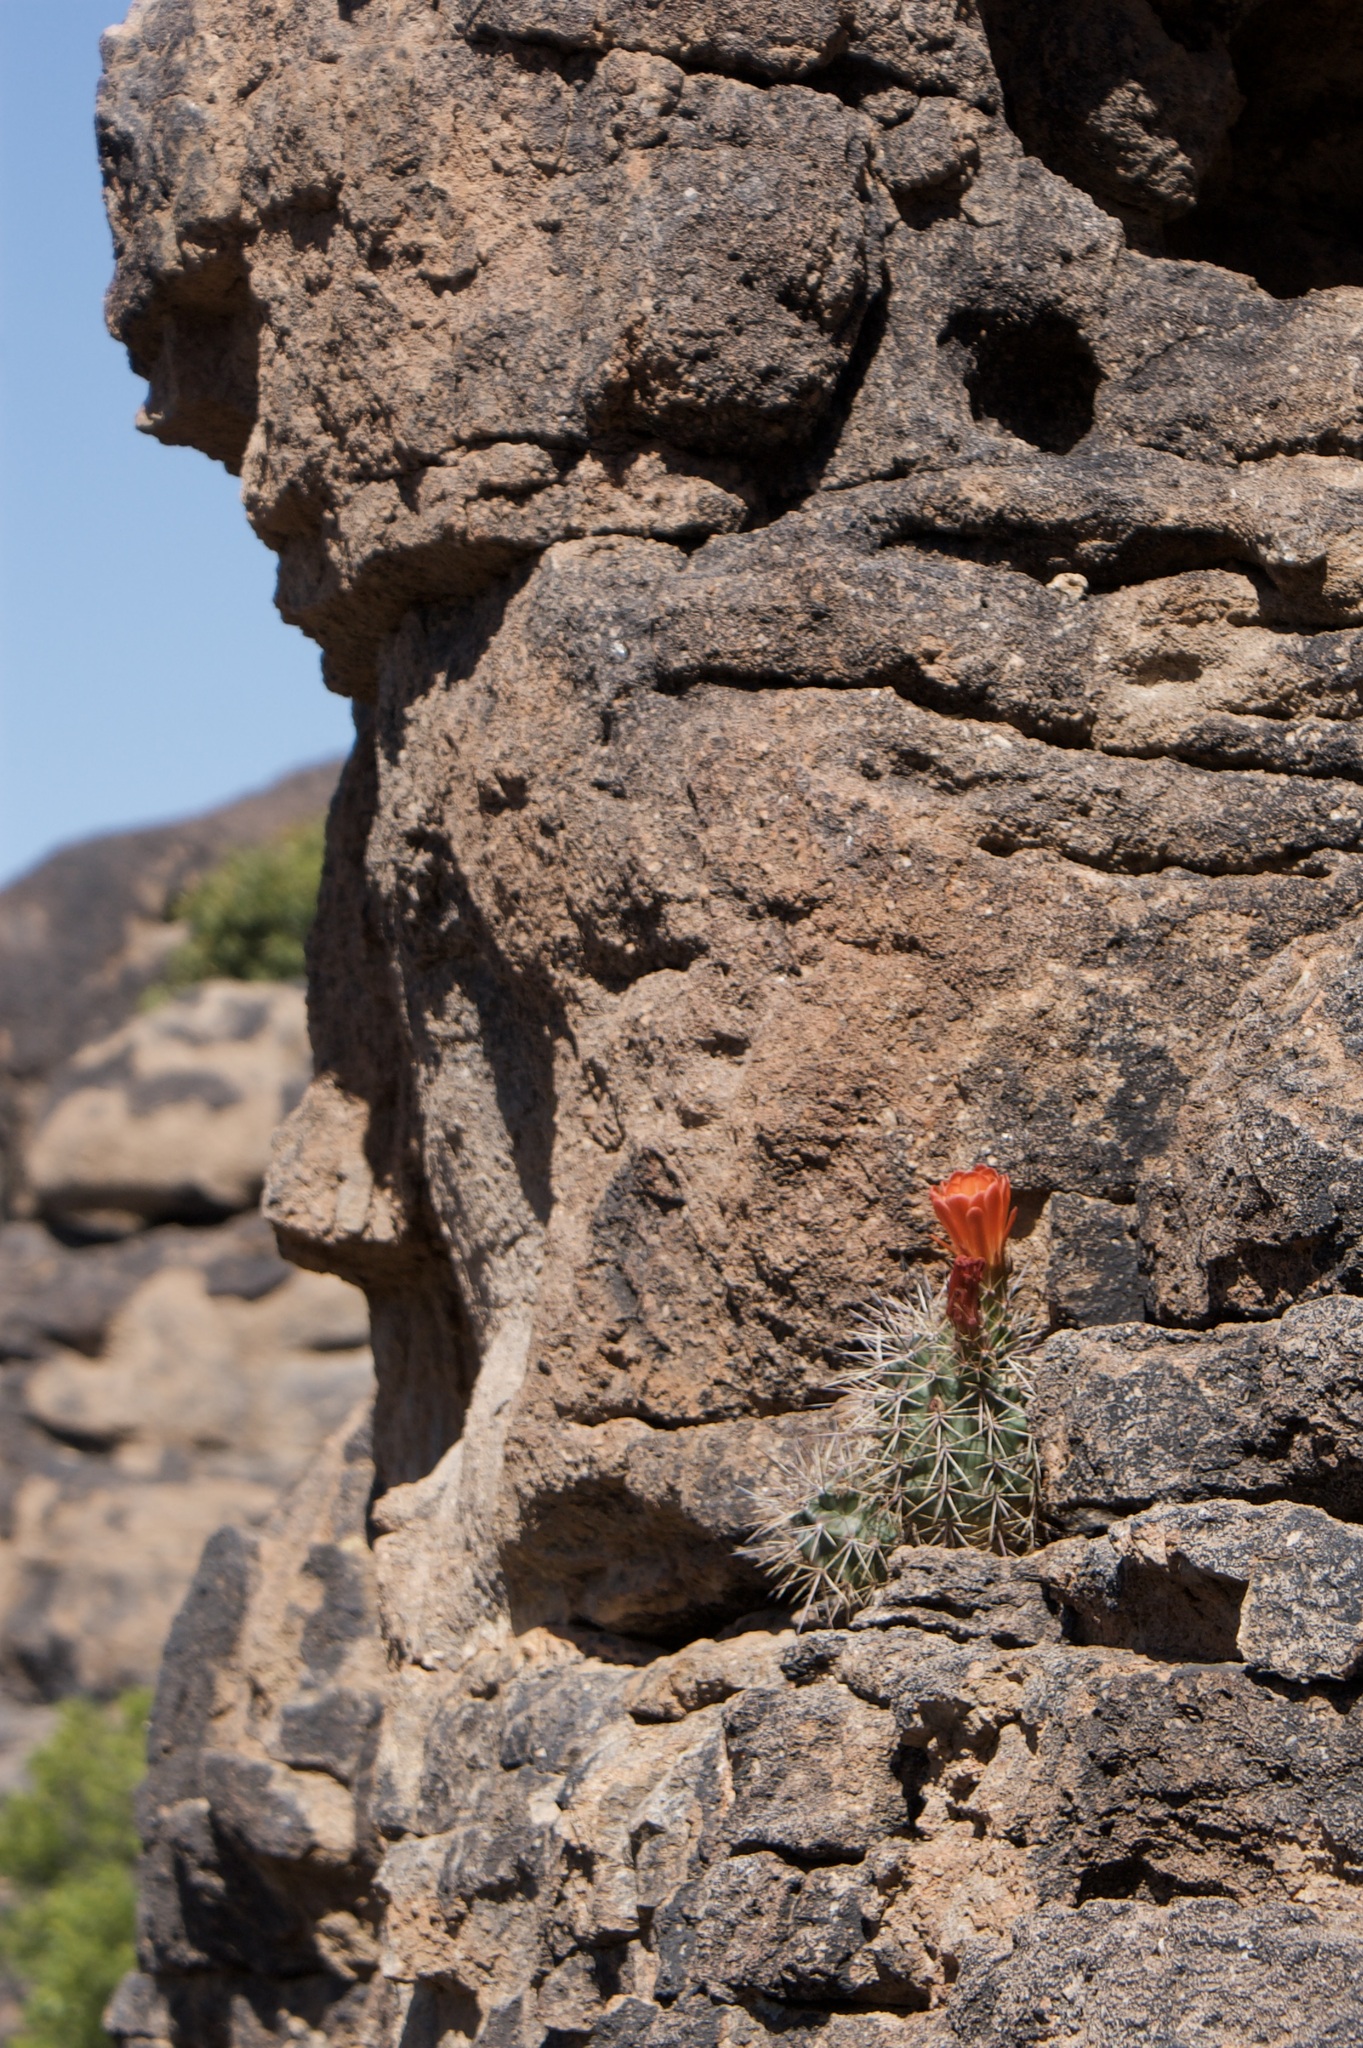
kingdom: Plantae
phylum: Tracheophyta
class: Magnoliopsida
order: Caryophyllales
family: Cactaceae
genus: Echinocereus
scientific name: Echinocereus coccineus
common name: Scarlet hedgehog cactus
